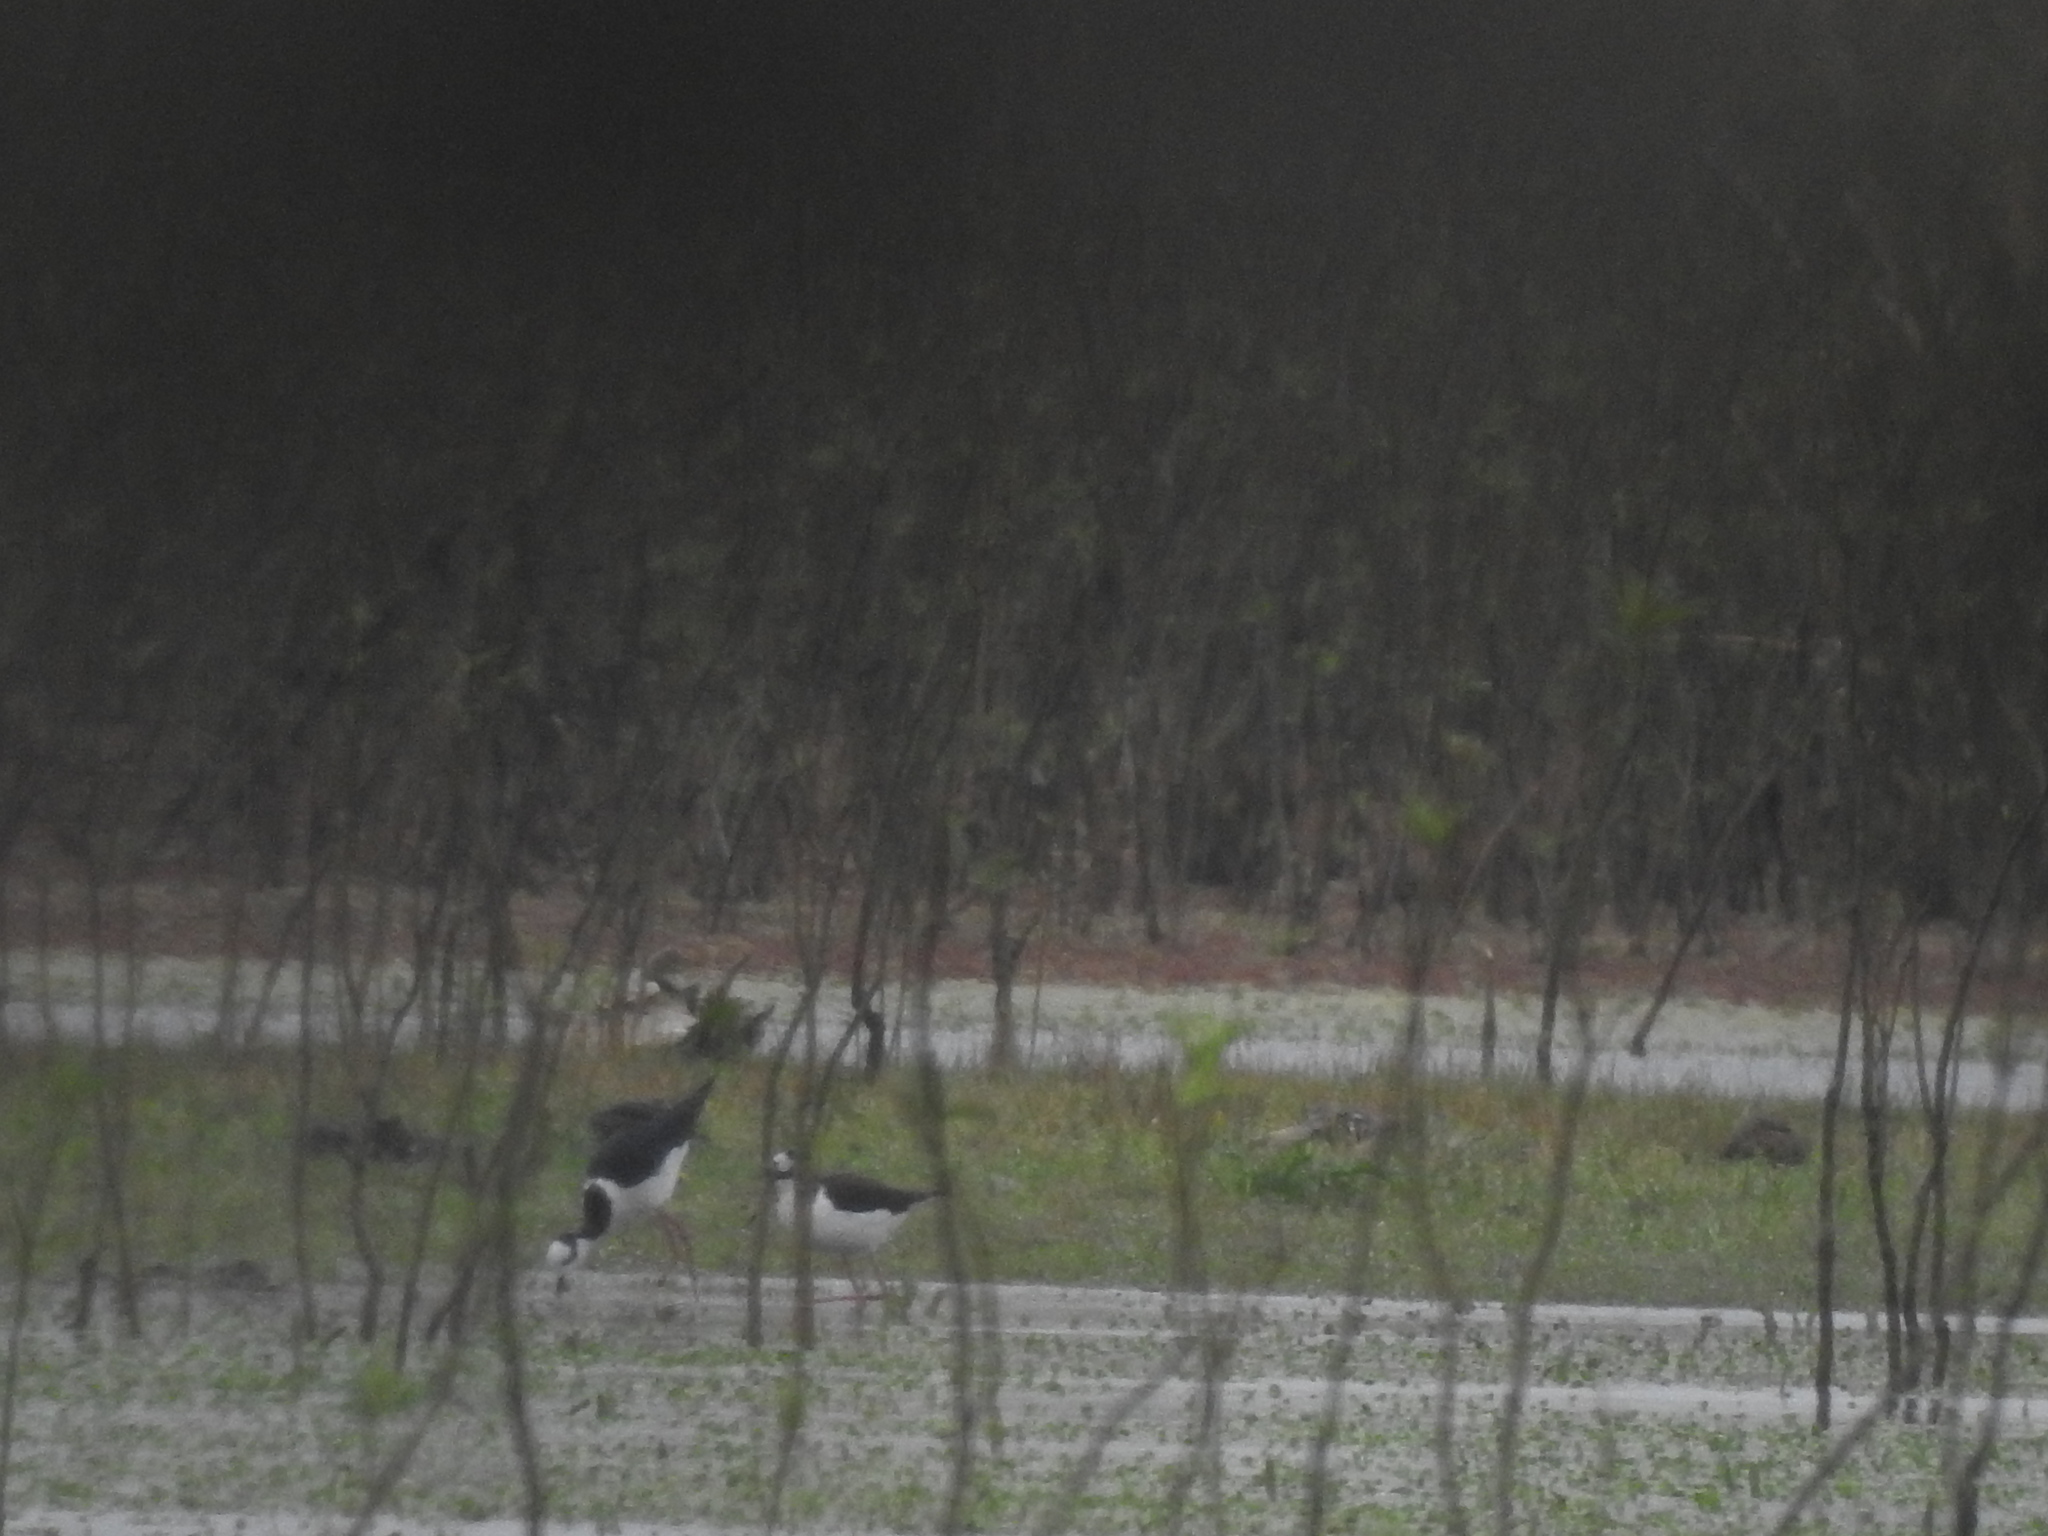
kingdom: Animalia
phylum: Chordata
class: Aves
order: Charadriiformes
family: Recurvirostridae
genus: Himantopus
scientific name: Himantopus mexicanus
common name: Black-necked stilt
